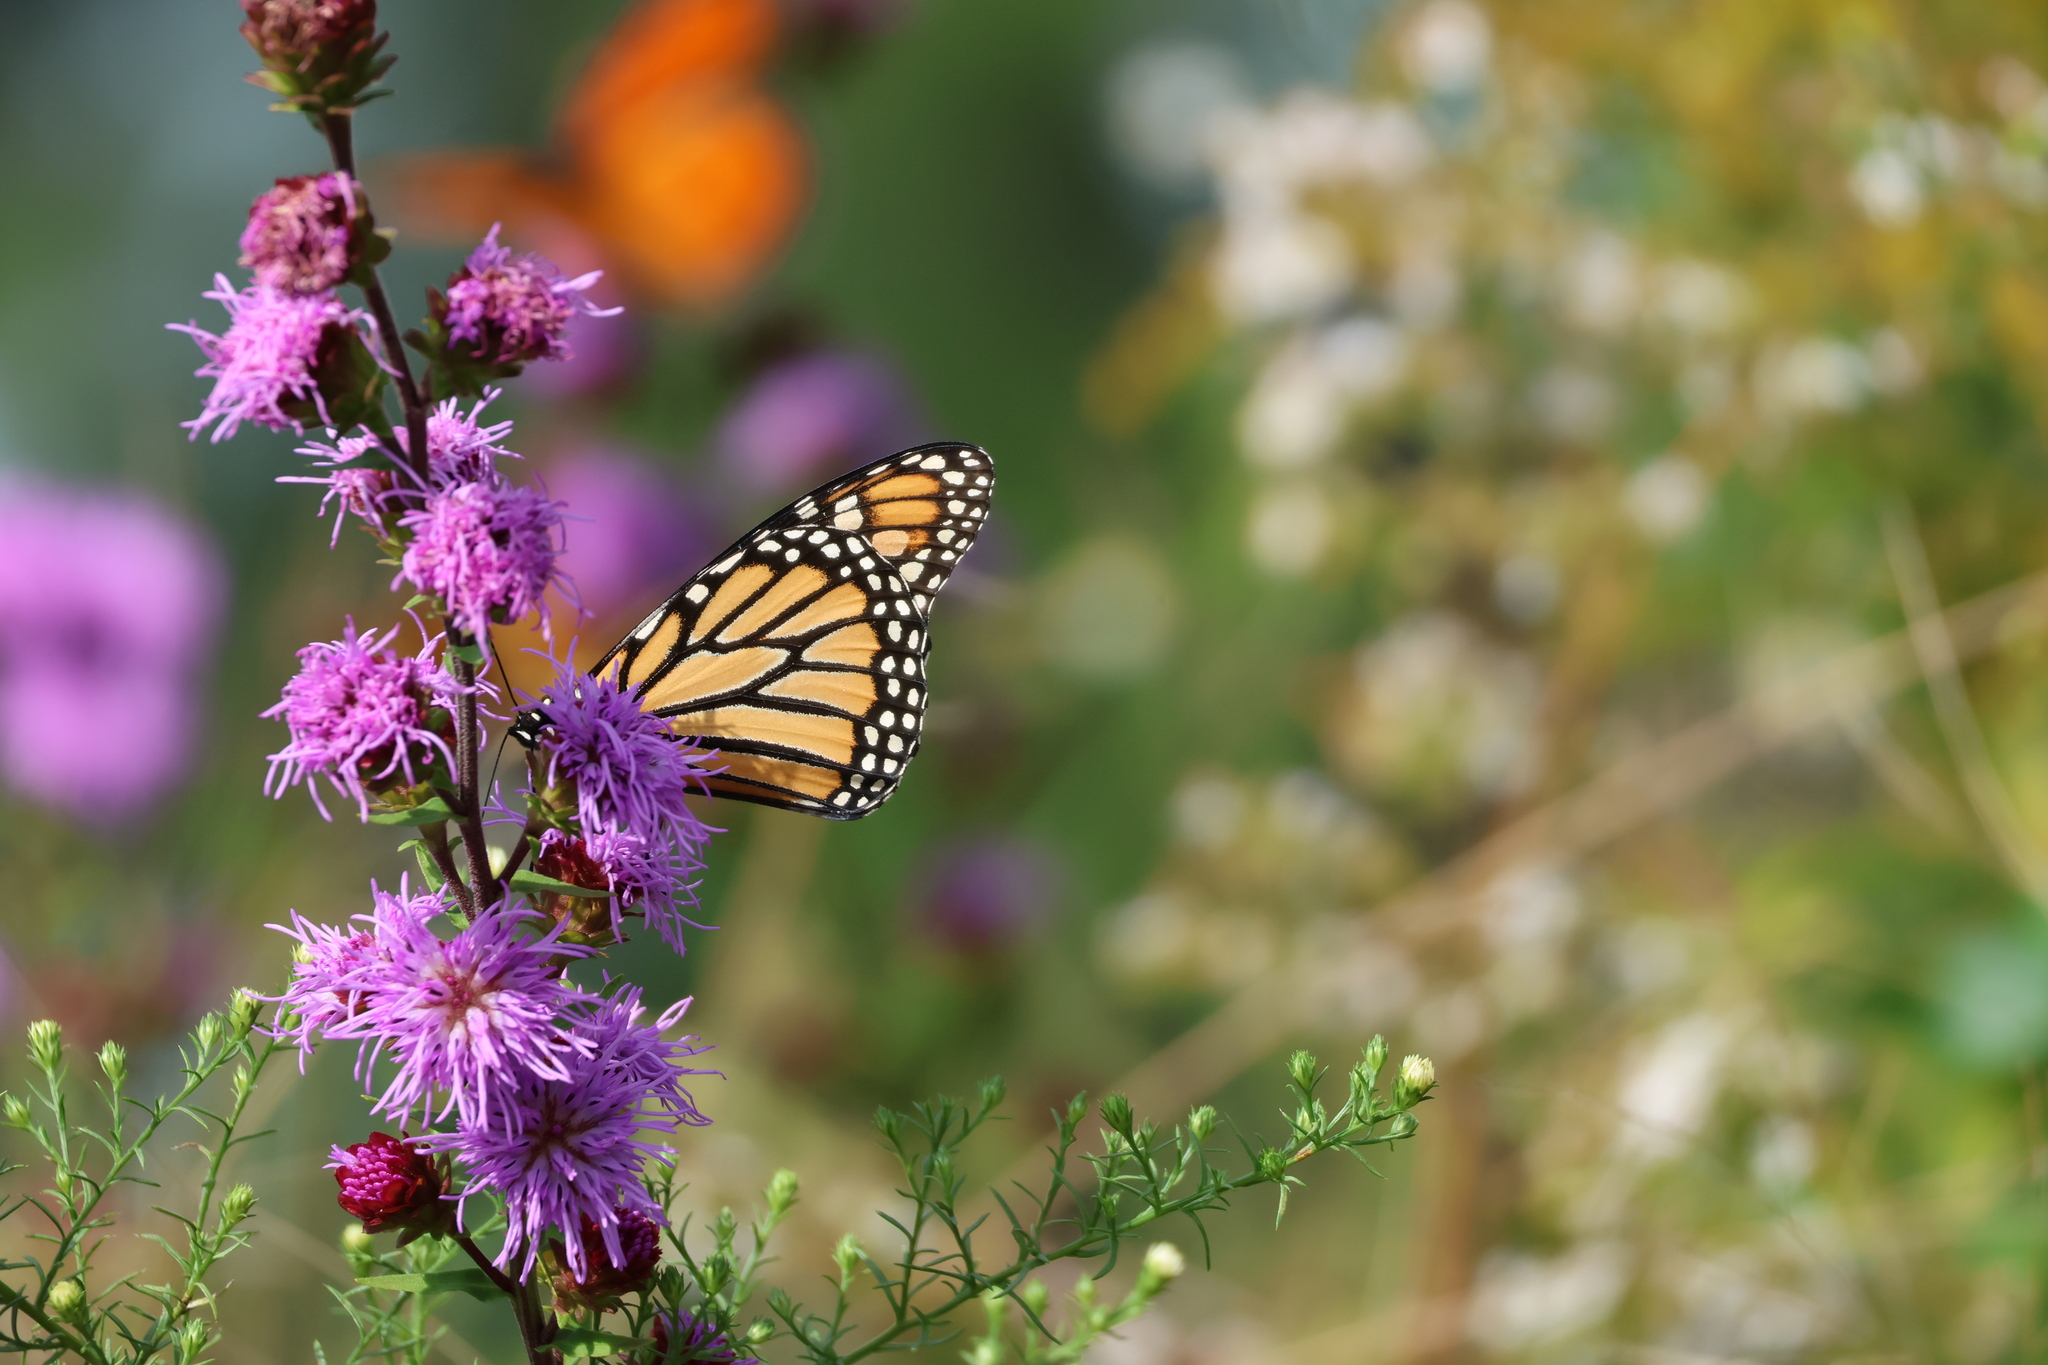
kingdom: Animalia
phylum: Arthropoda
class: Insecta
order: Lepidoptera
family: Nymphalidae
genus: Danaus
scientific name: Danaus plexippus
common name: Monarch
